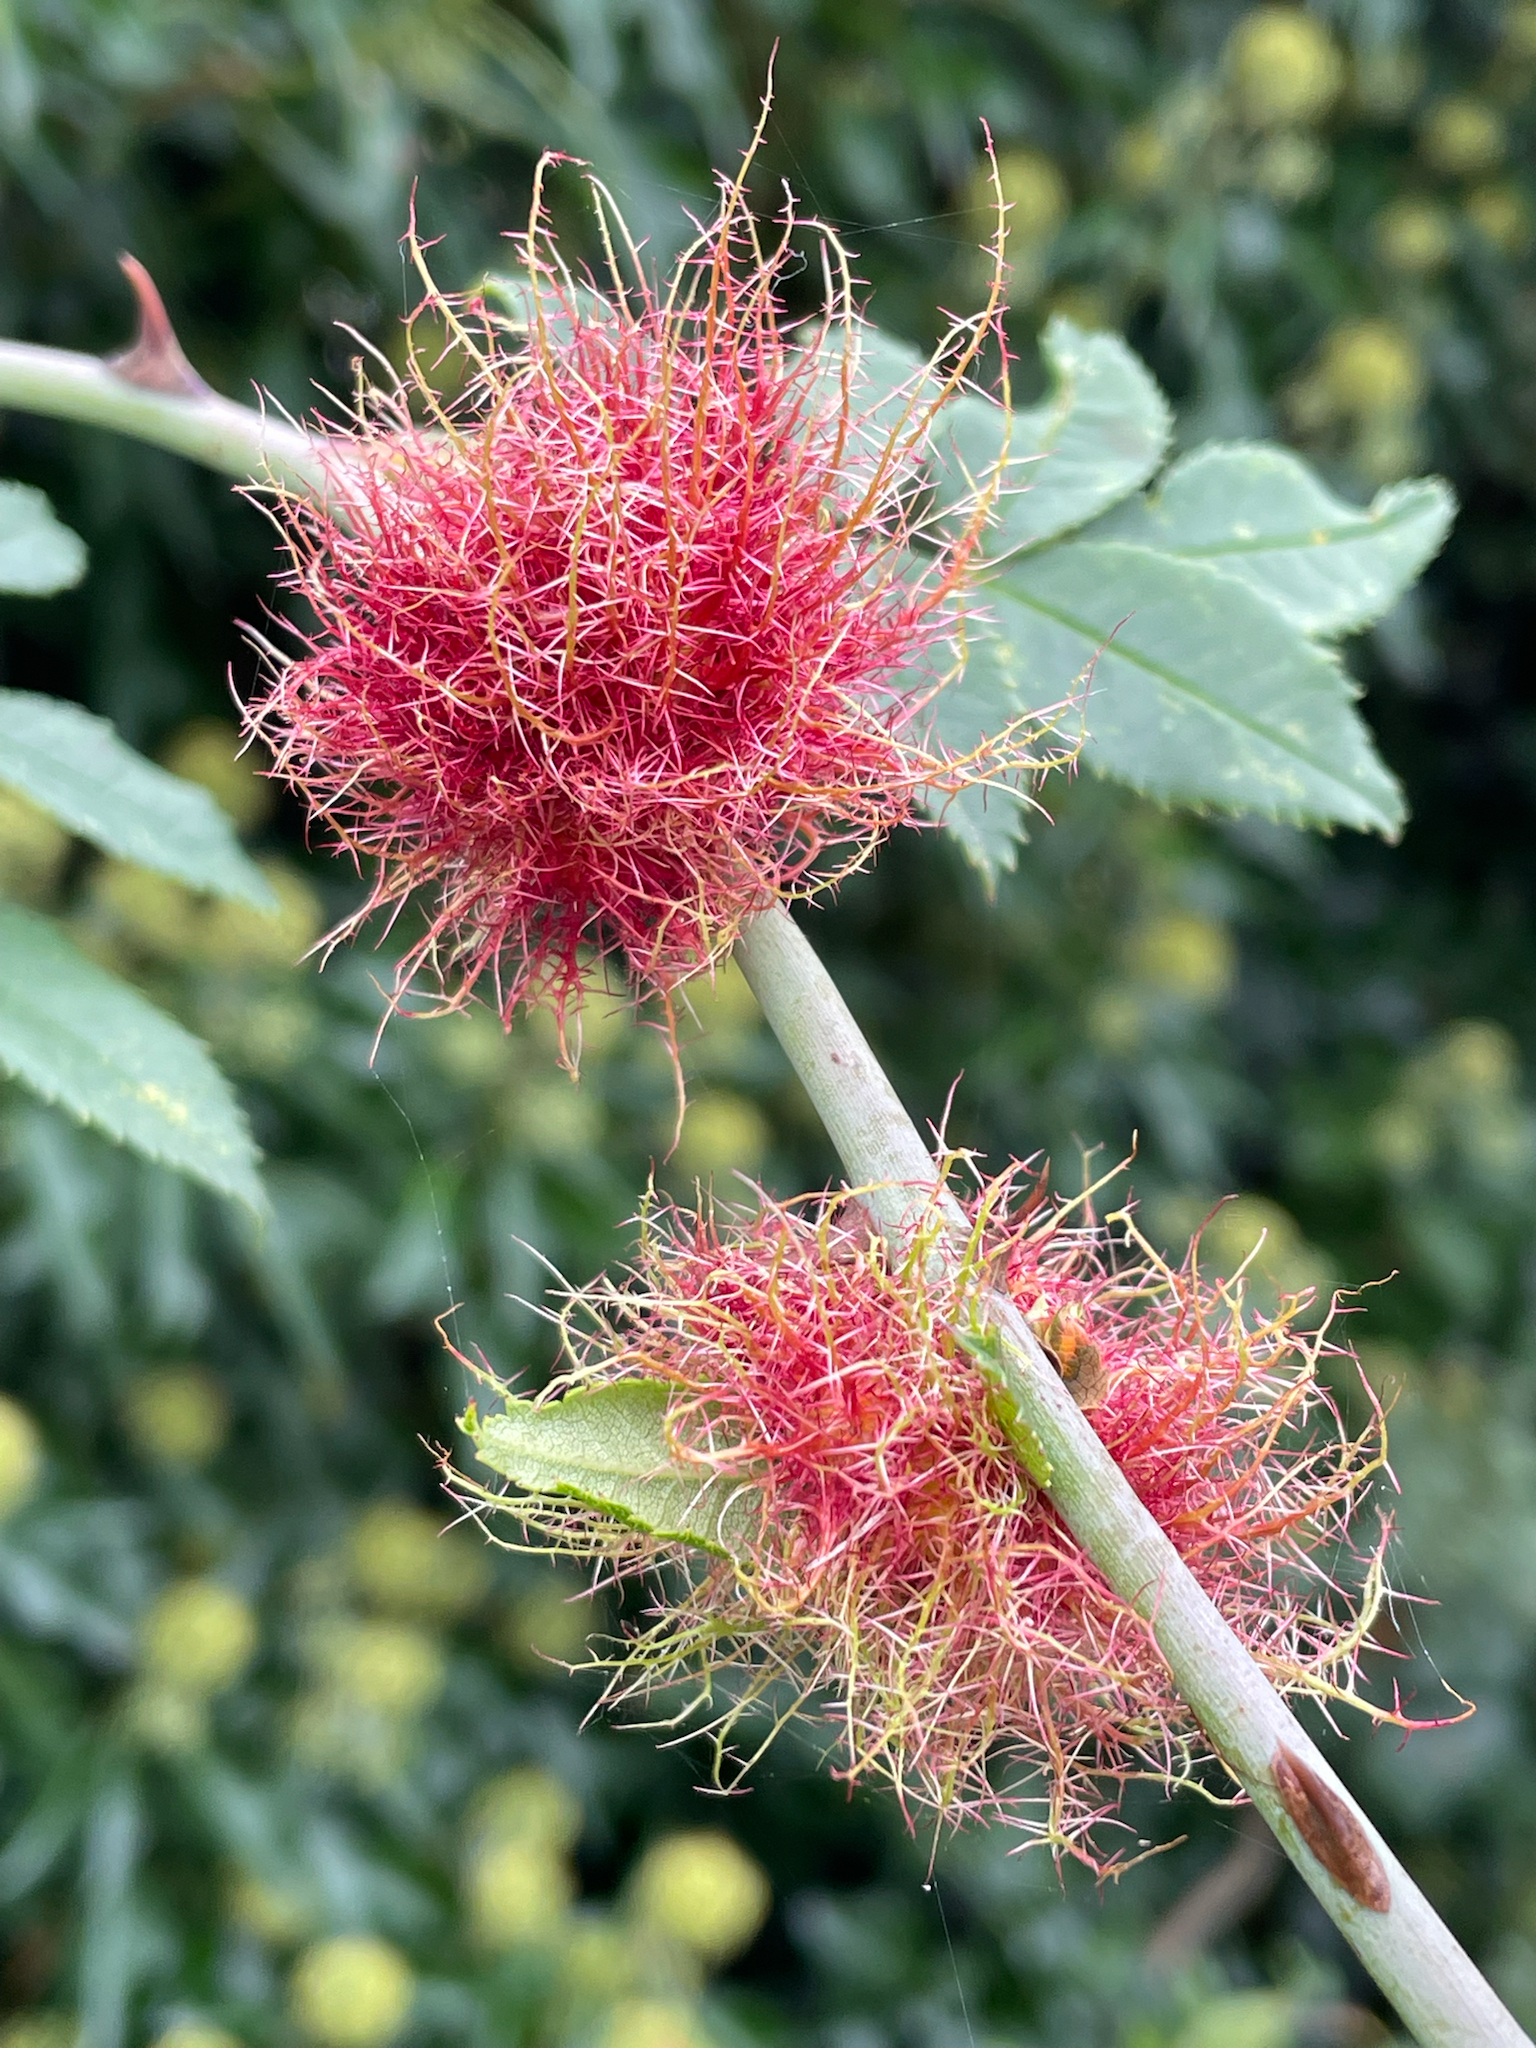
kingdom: Animalia
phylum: Arthropoda
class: Insecta
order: Hymenoptera
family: Cynipidae
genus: Diplolepis
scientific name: Diplolepis rosae
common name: Bedeguar gall
